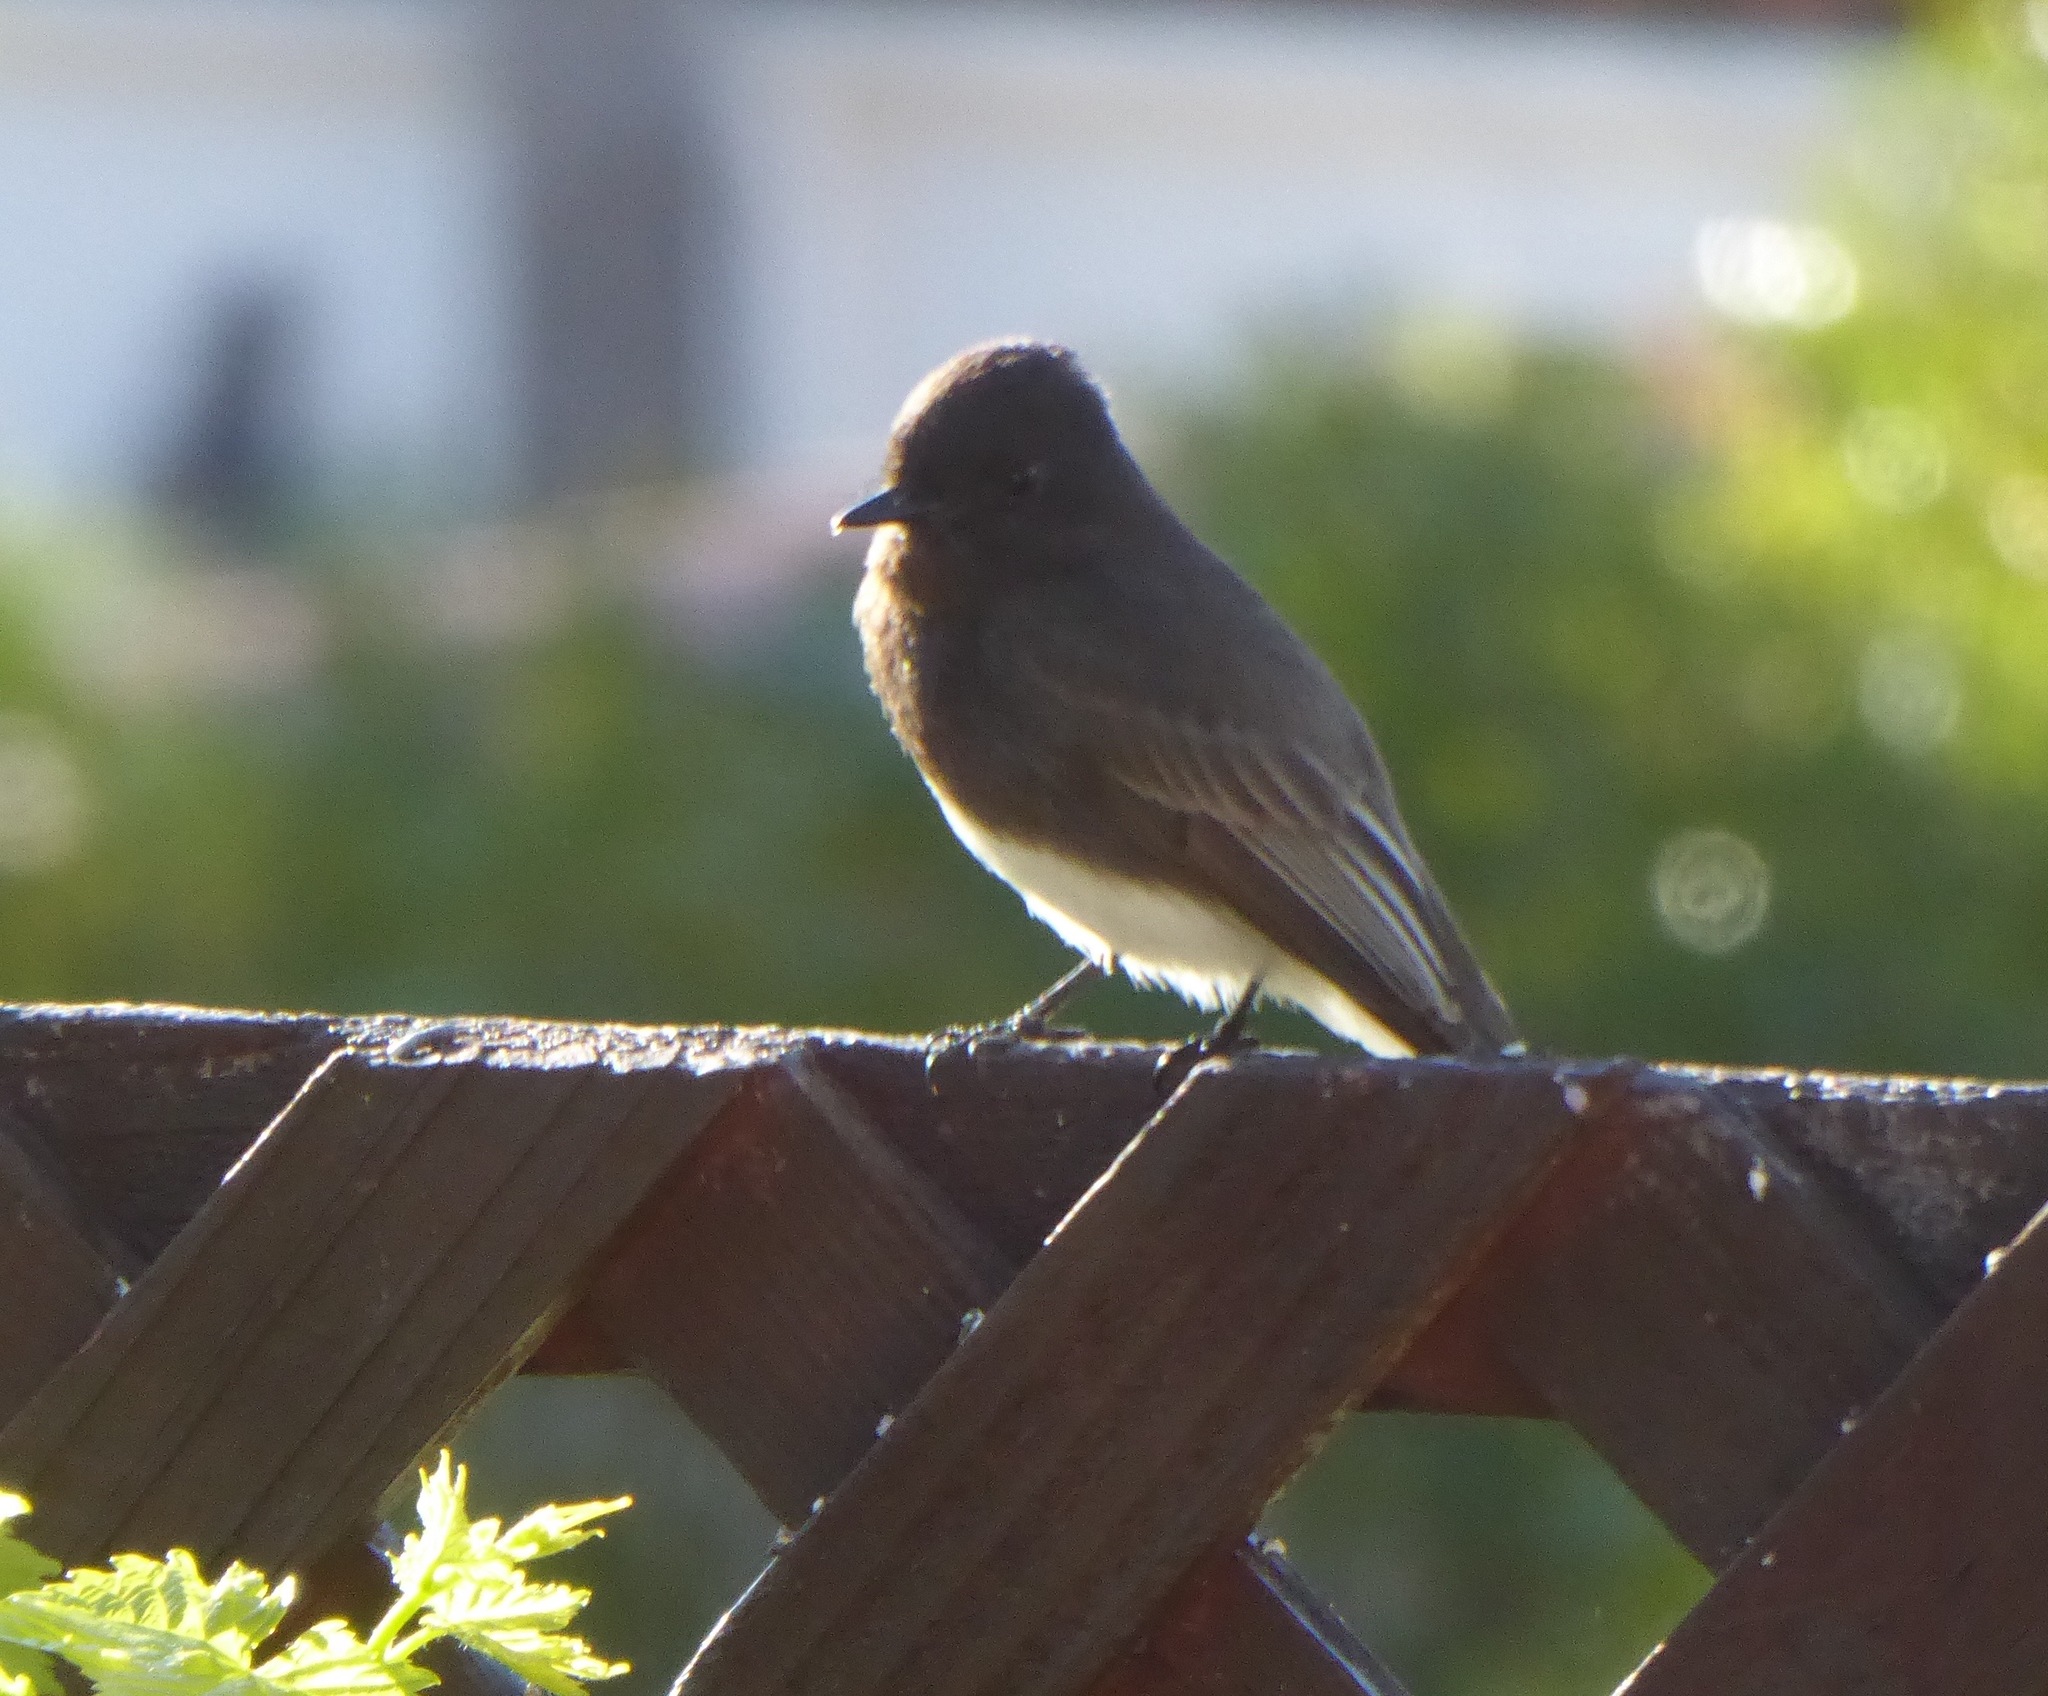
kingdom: Animalia
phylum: Chordata
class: Aves
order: Passeriformes
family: Tyrannidae
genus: Sayornis
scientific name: Sayornis nigricans
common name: Black phoebe
